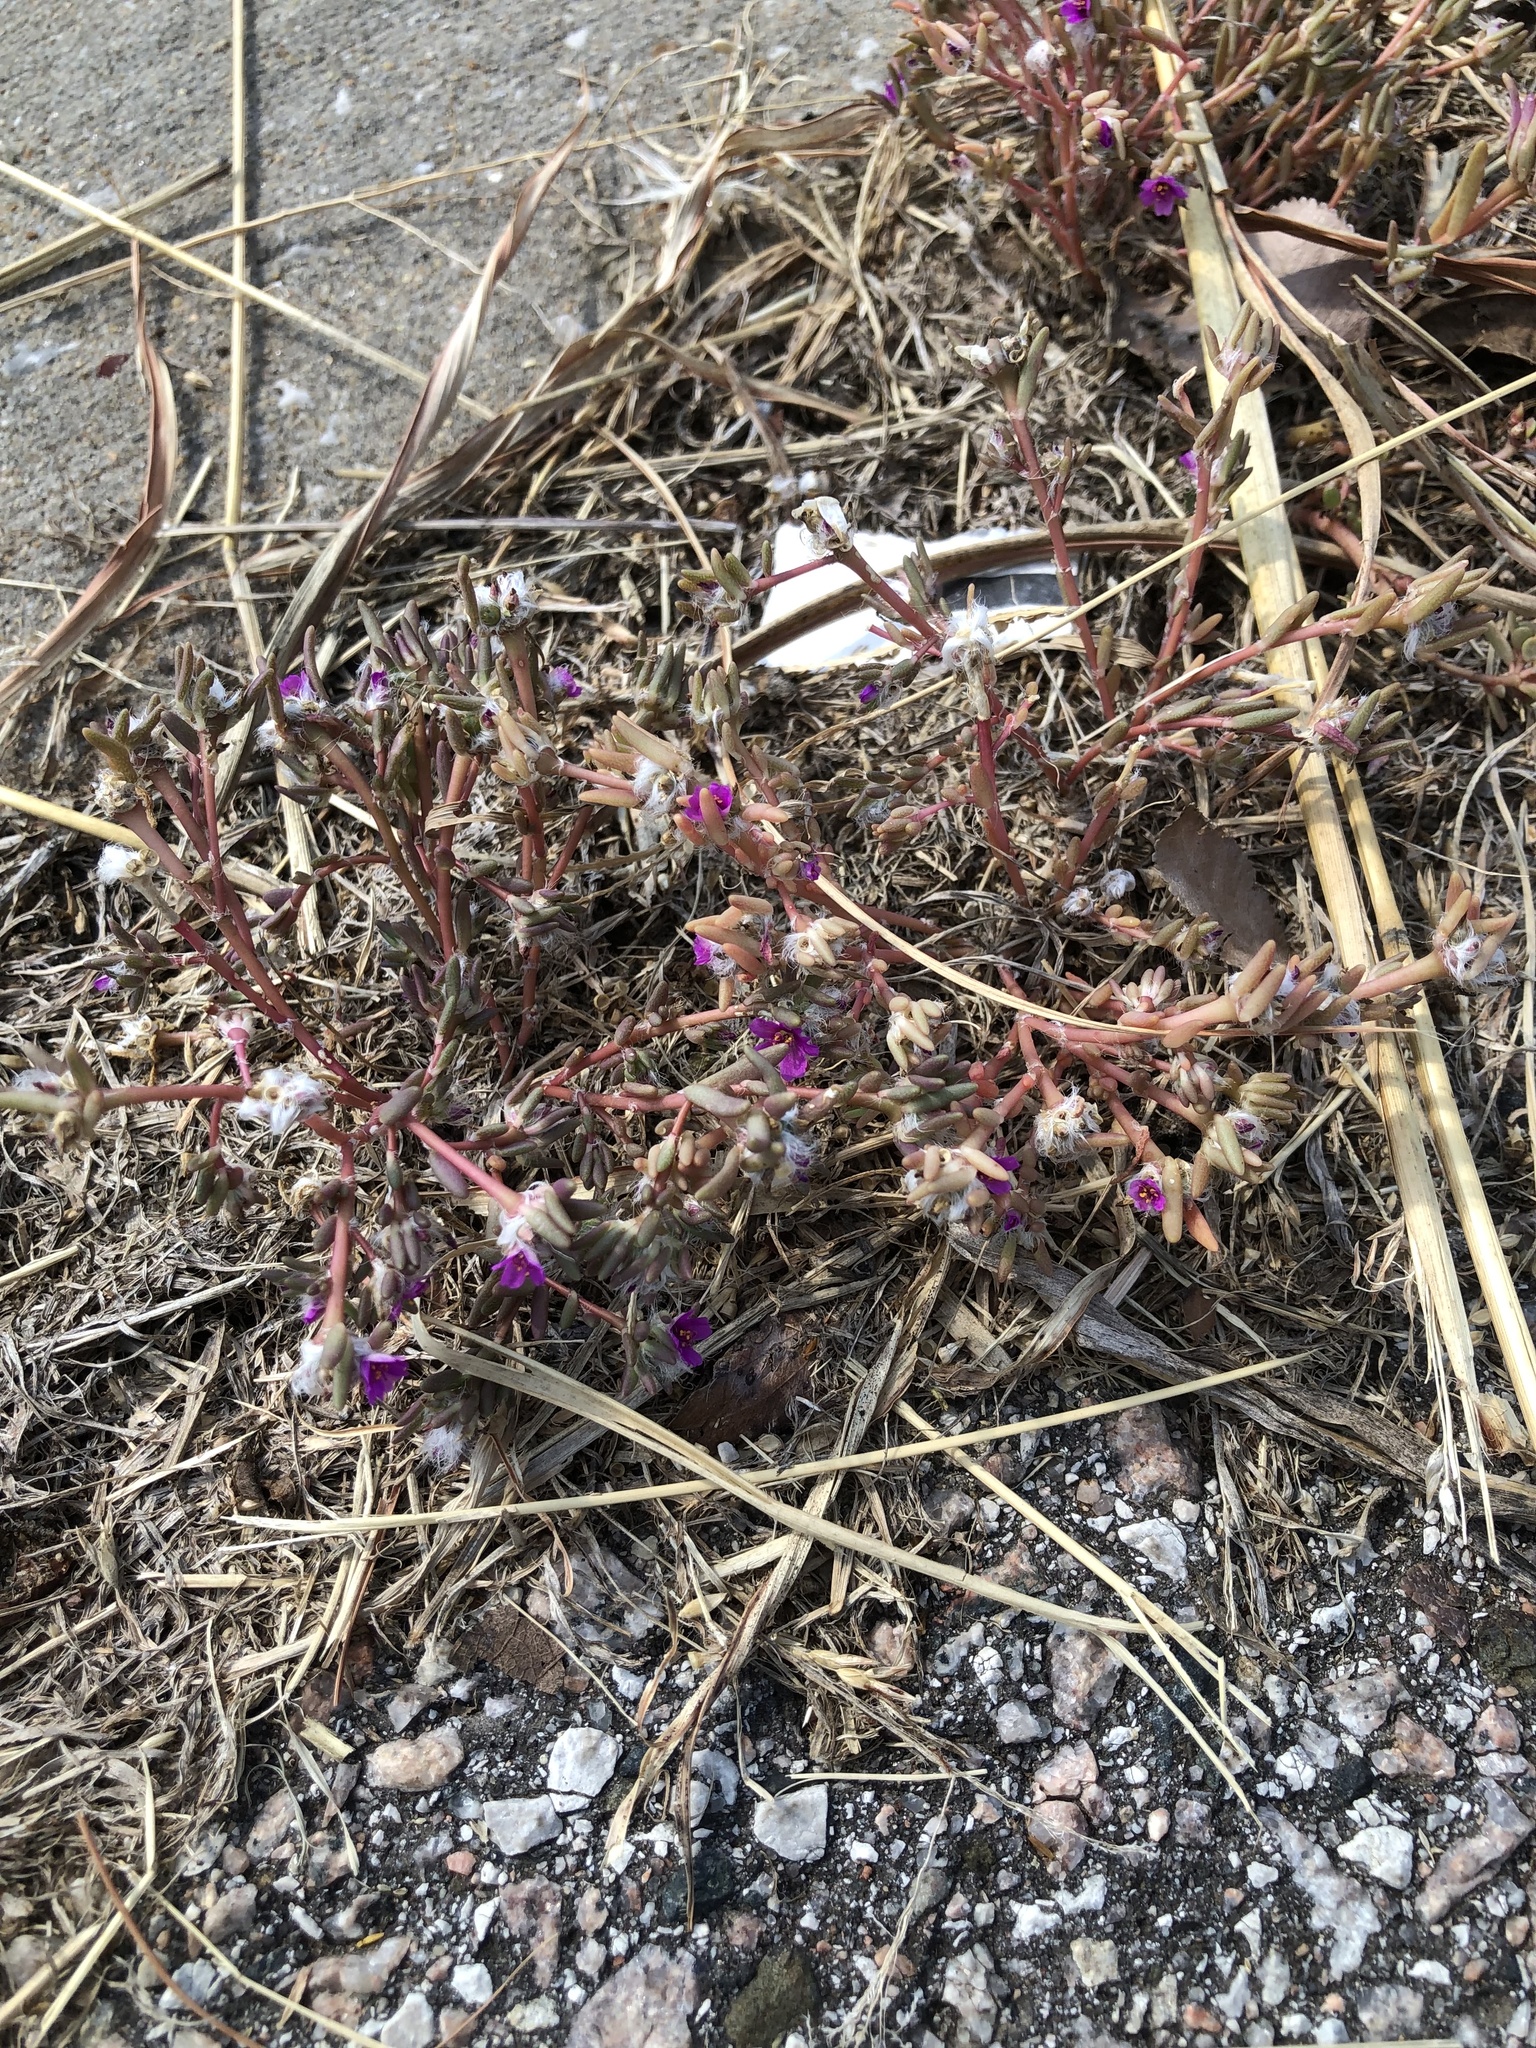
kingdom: Plantae
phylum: Tracheophyta
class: Magnoliopsida
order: Caryophyllales
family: Portulacaceae
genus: Portulaca
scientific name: Portulaca pilosa
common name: Kiss me quick
